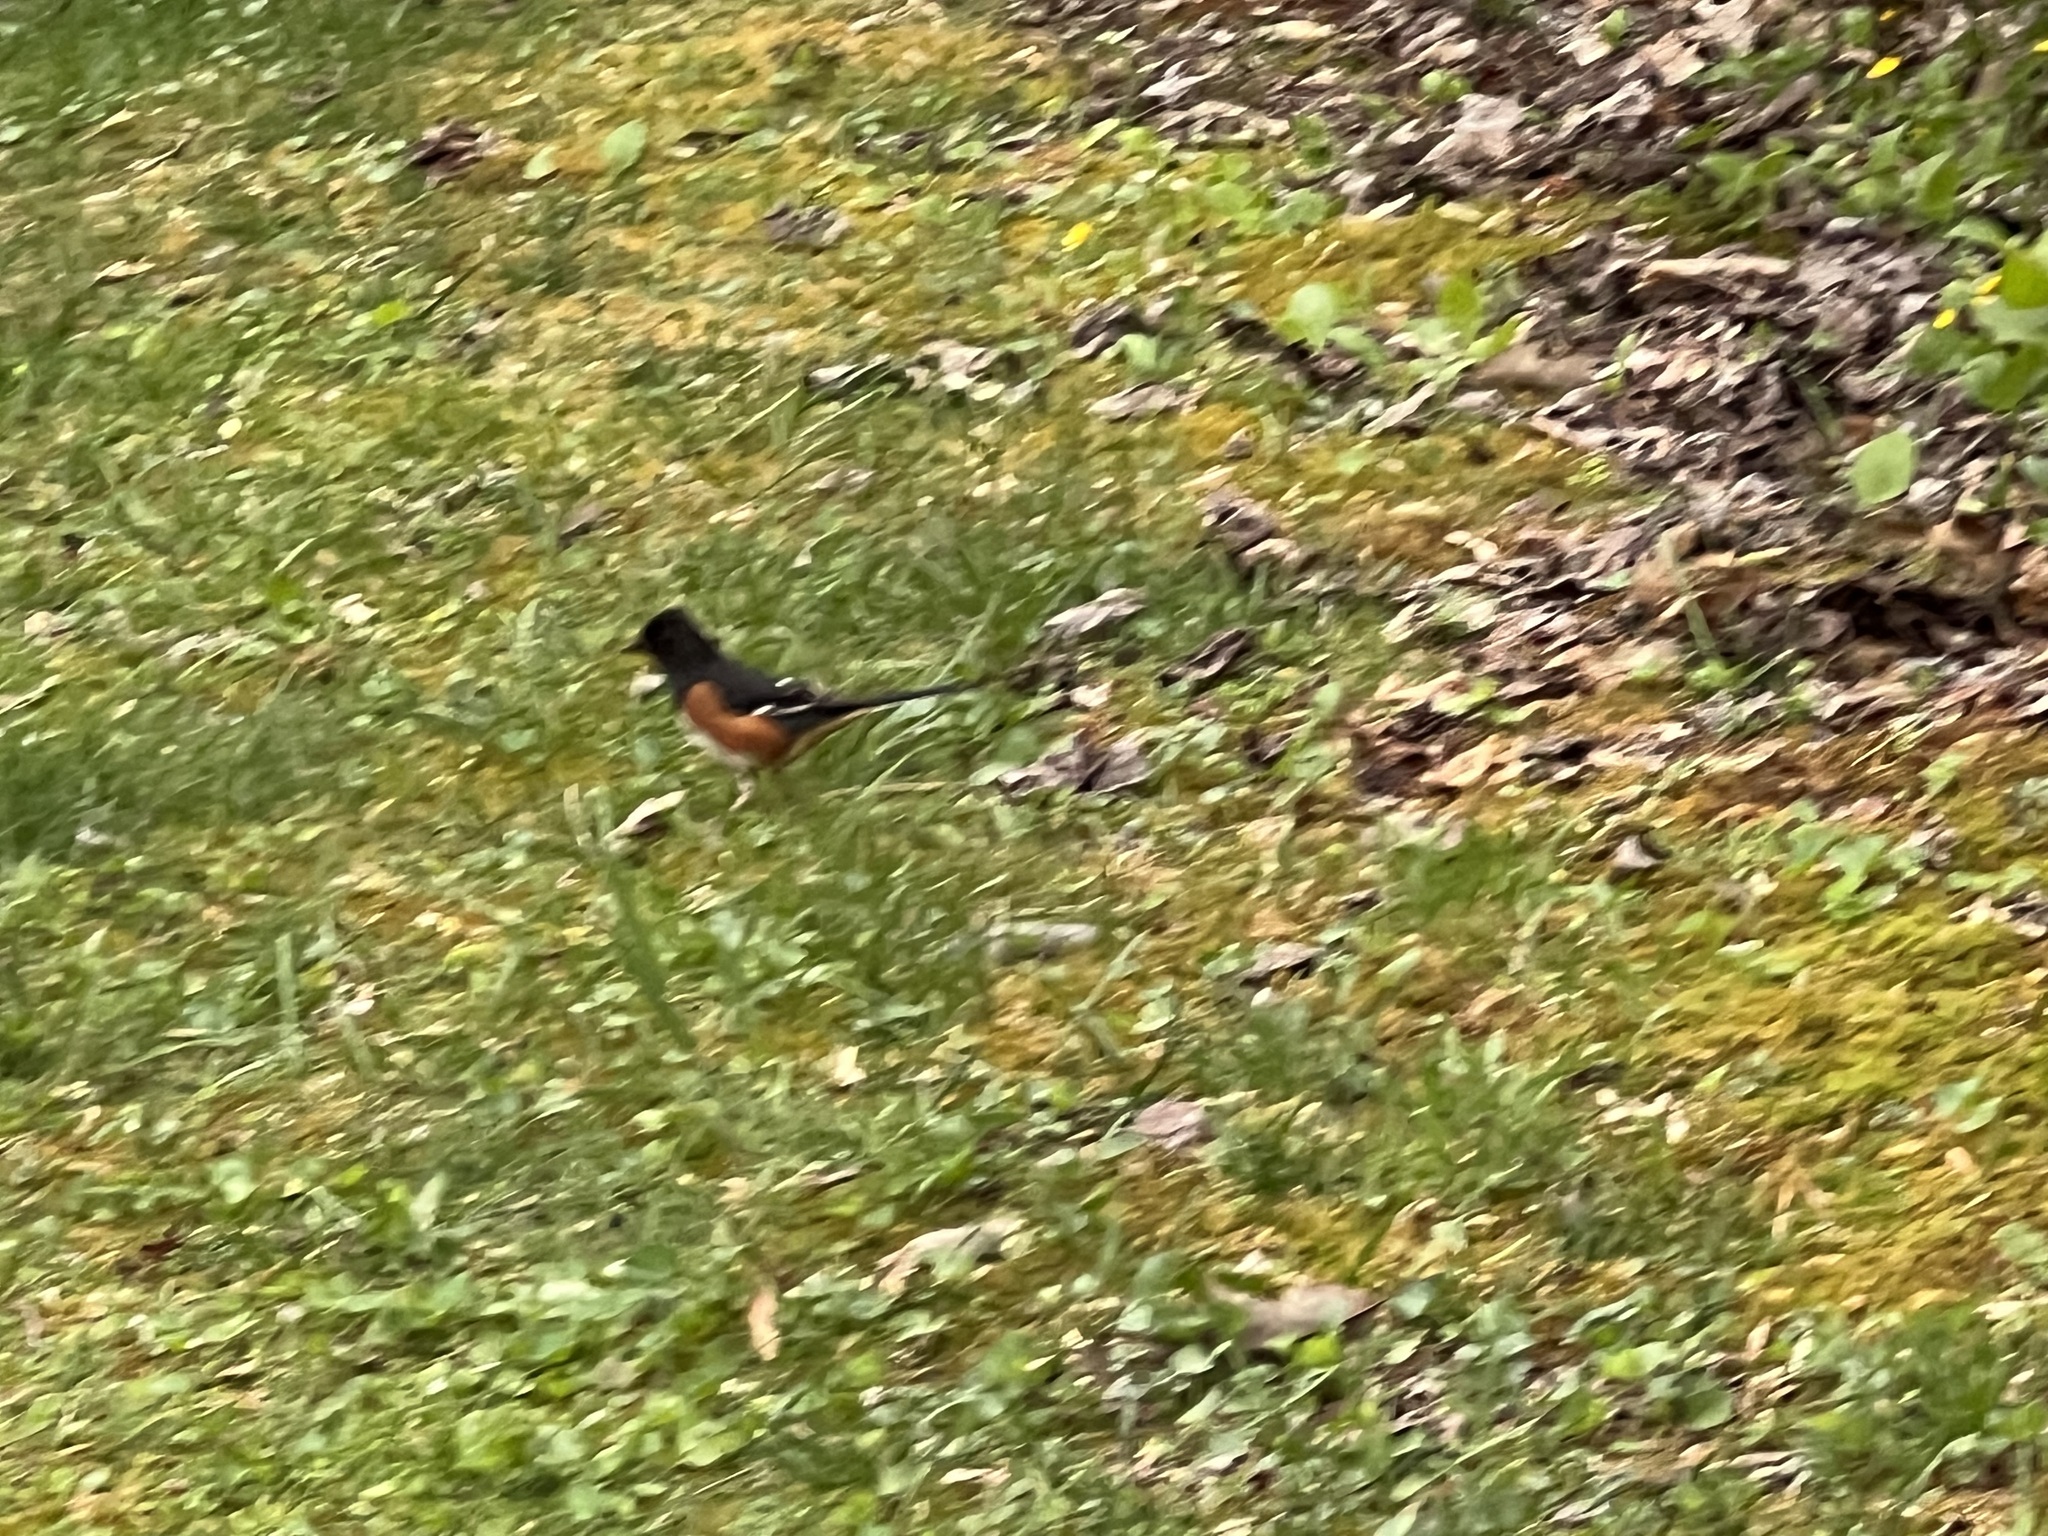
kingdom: Animalia
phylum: Chordata
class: Aves
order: Passeriformes
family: Passerellidae
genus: Pipilo
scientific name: Pipilo erythrophthalmus
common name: Eastern towhee
